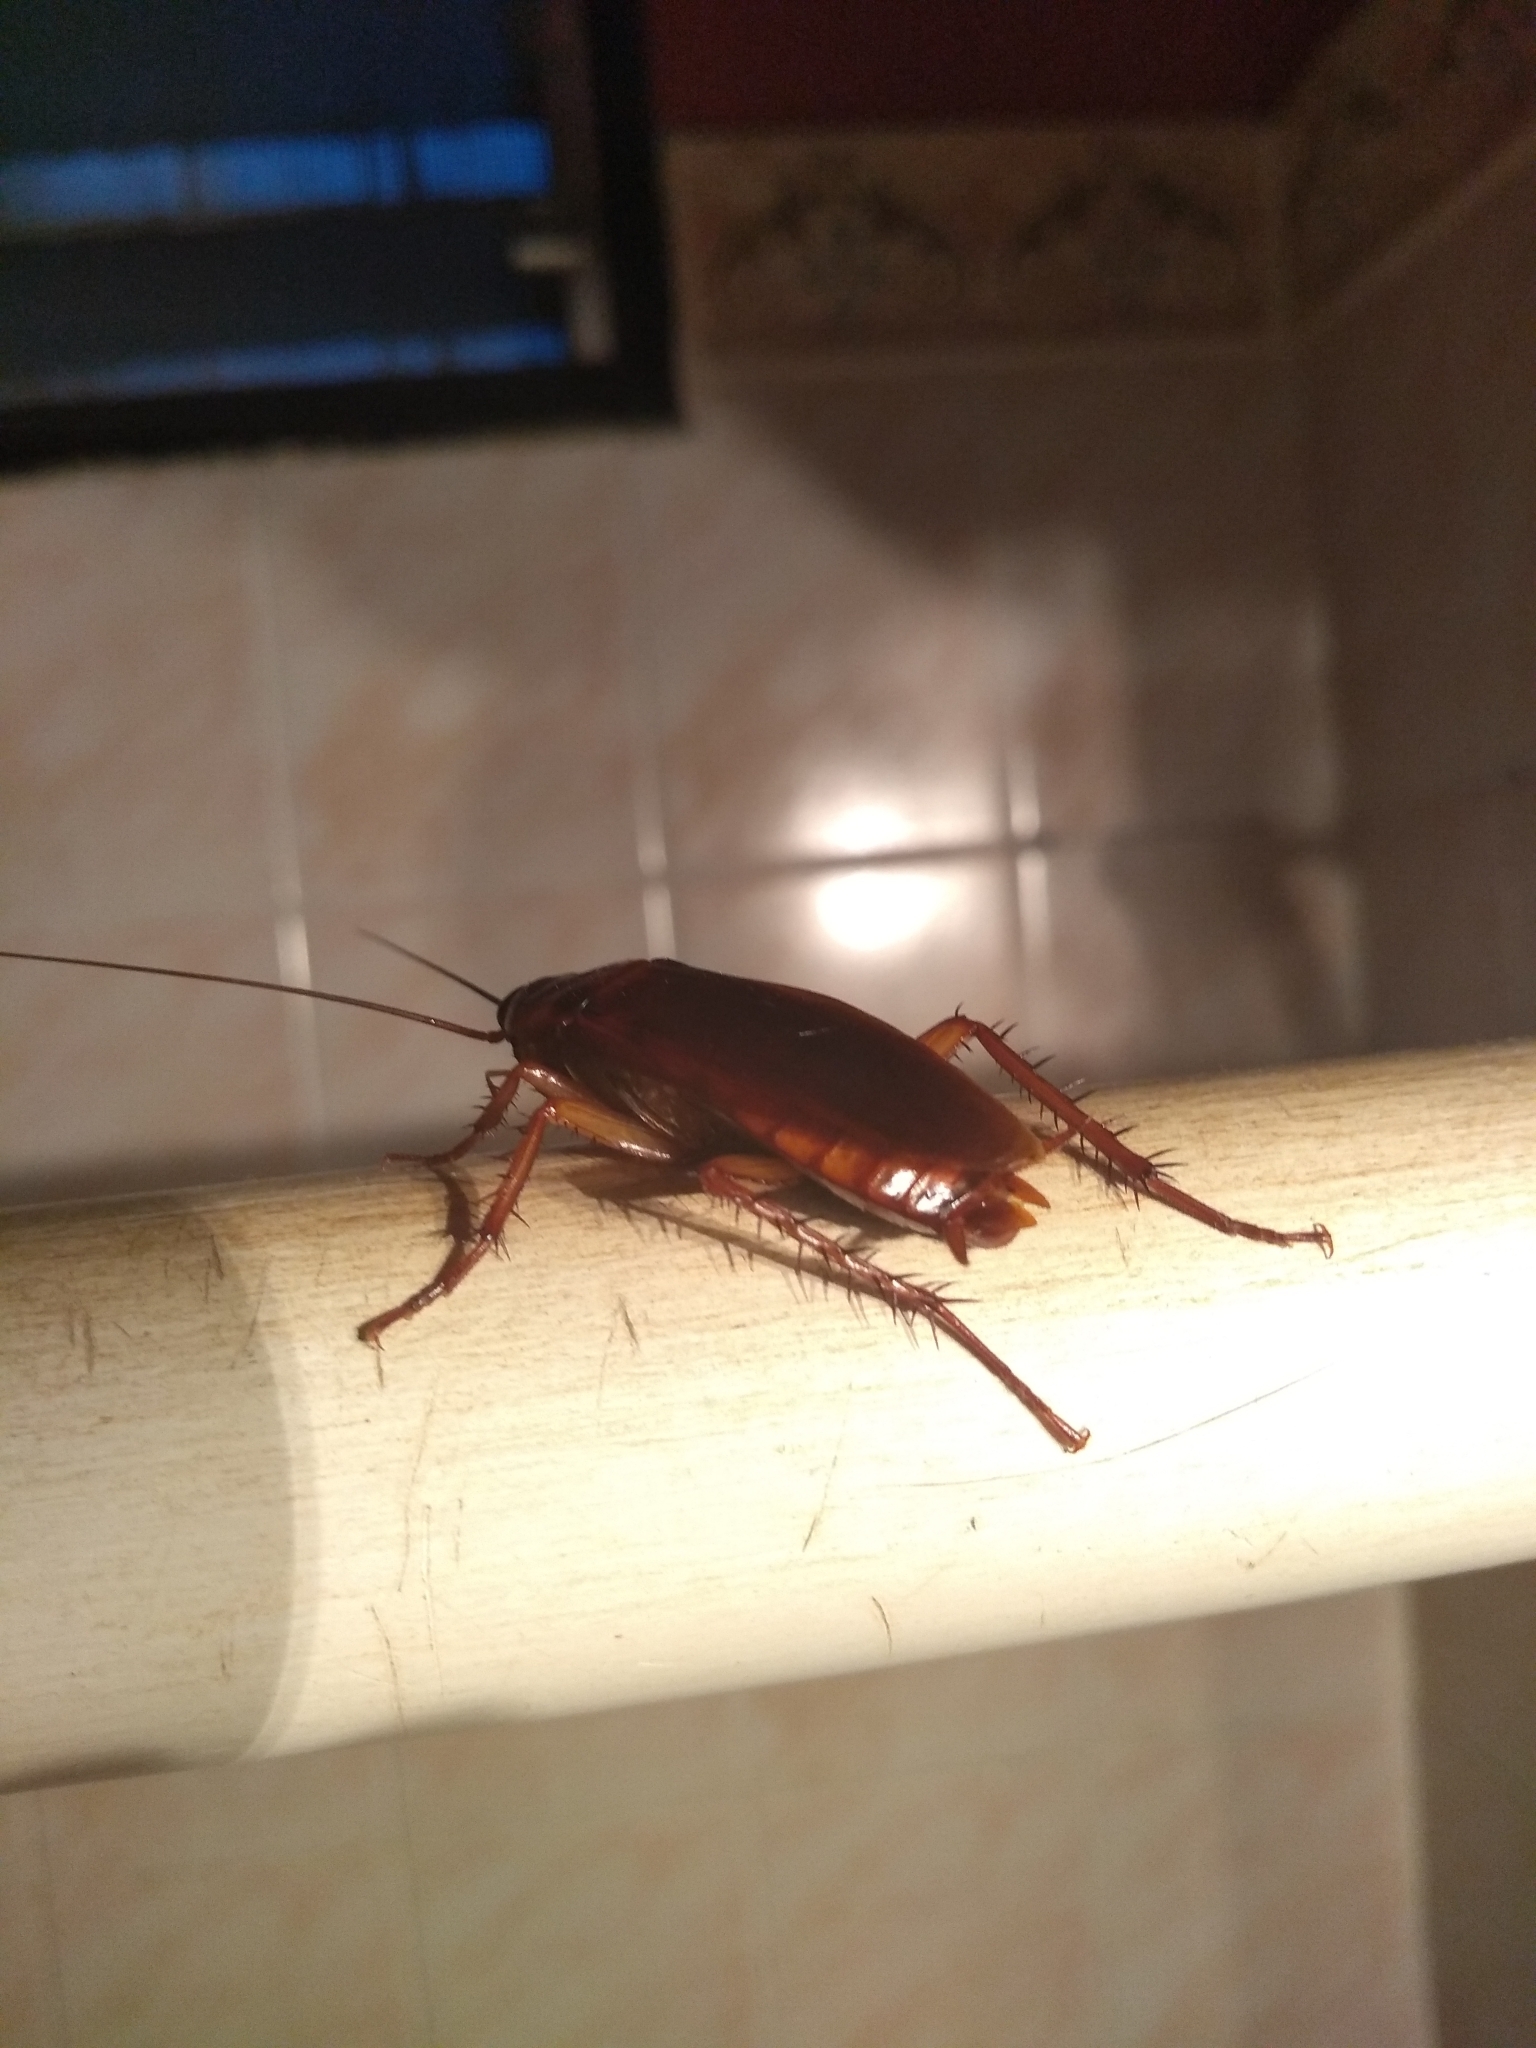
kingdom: Animalia
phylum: Arthropoda
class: Insecta
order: Blattodea
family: Blattidae
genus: Periplaneta
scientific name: Periplaneta americana
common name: American cockroach
